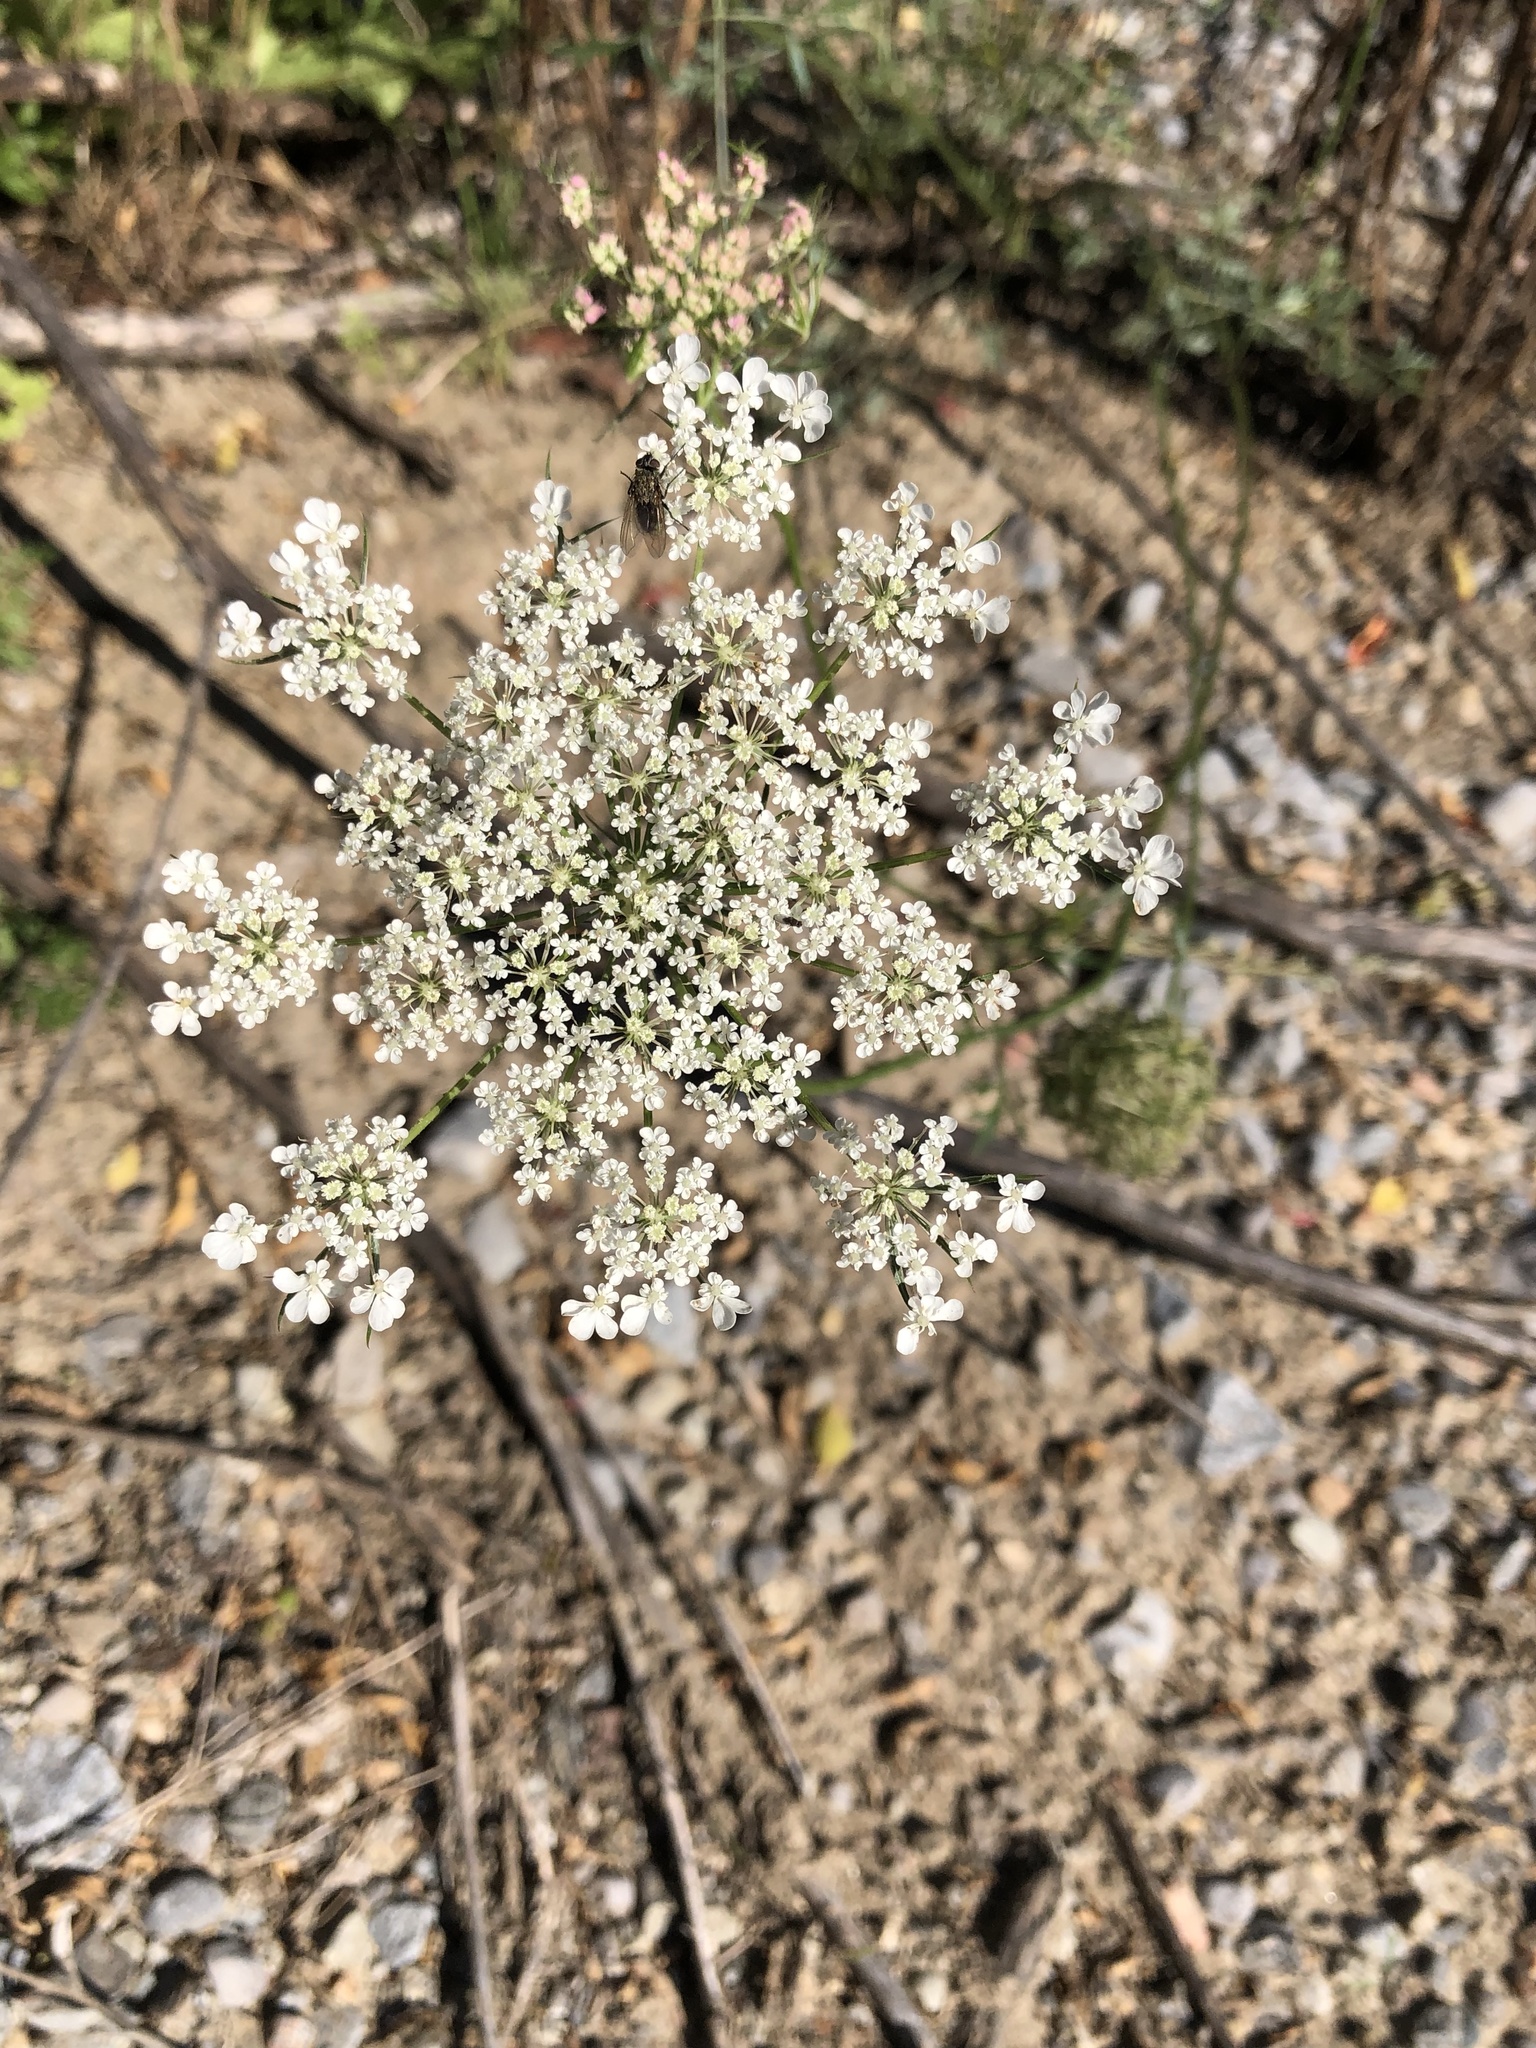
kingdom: Plantae
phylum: Tracheophyta
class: Magnoliopsida
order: Apiales
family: Apiaceae
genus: Daucus
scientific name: Daucus carota
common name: Wild carrot
